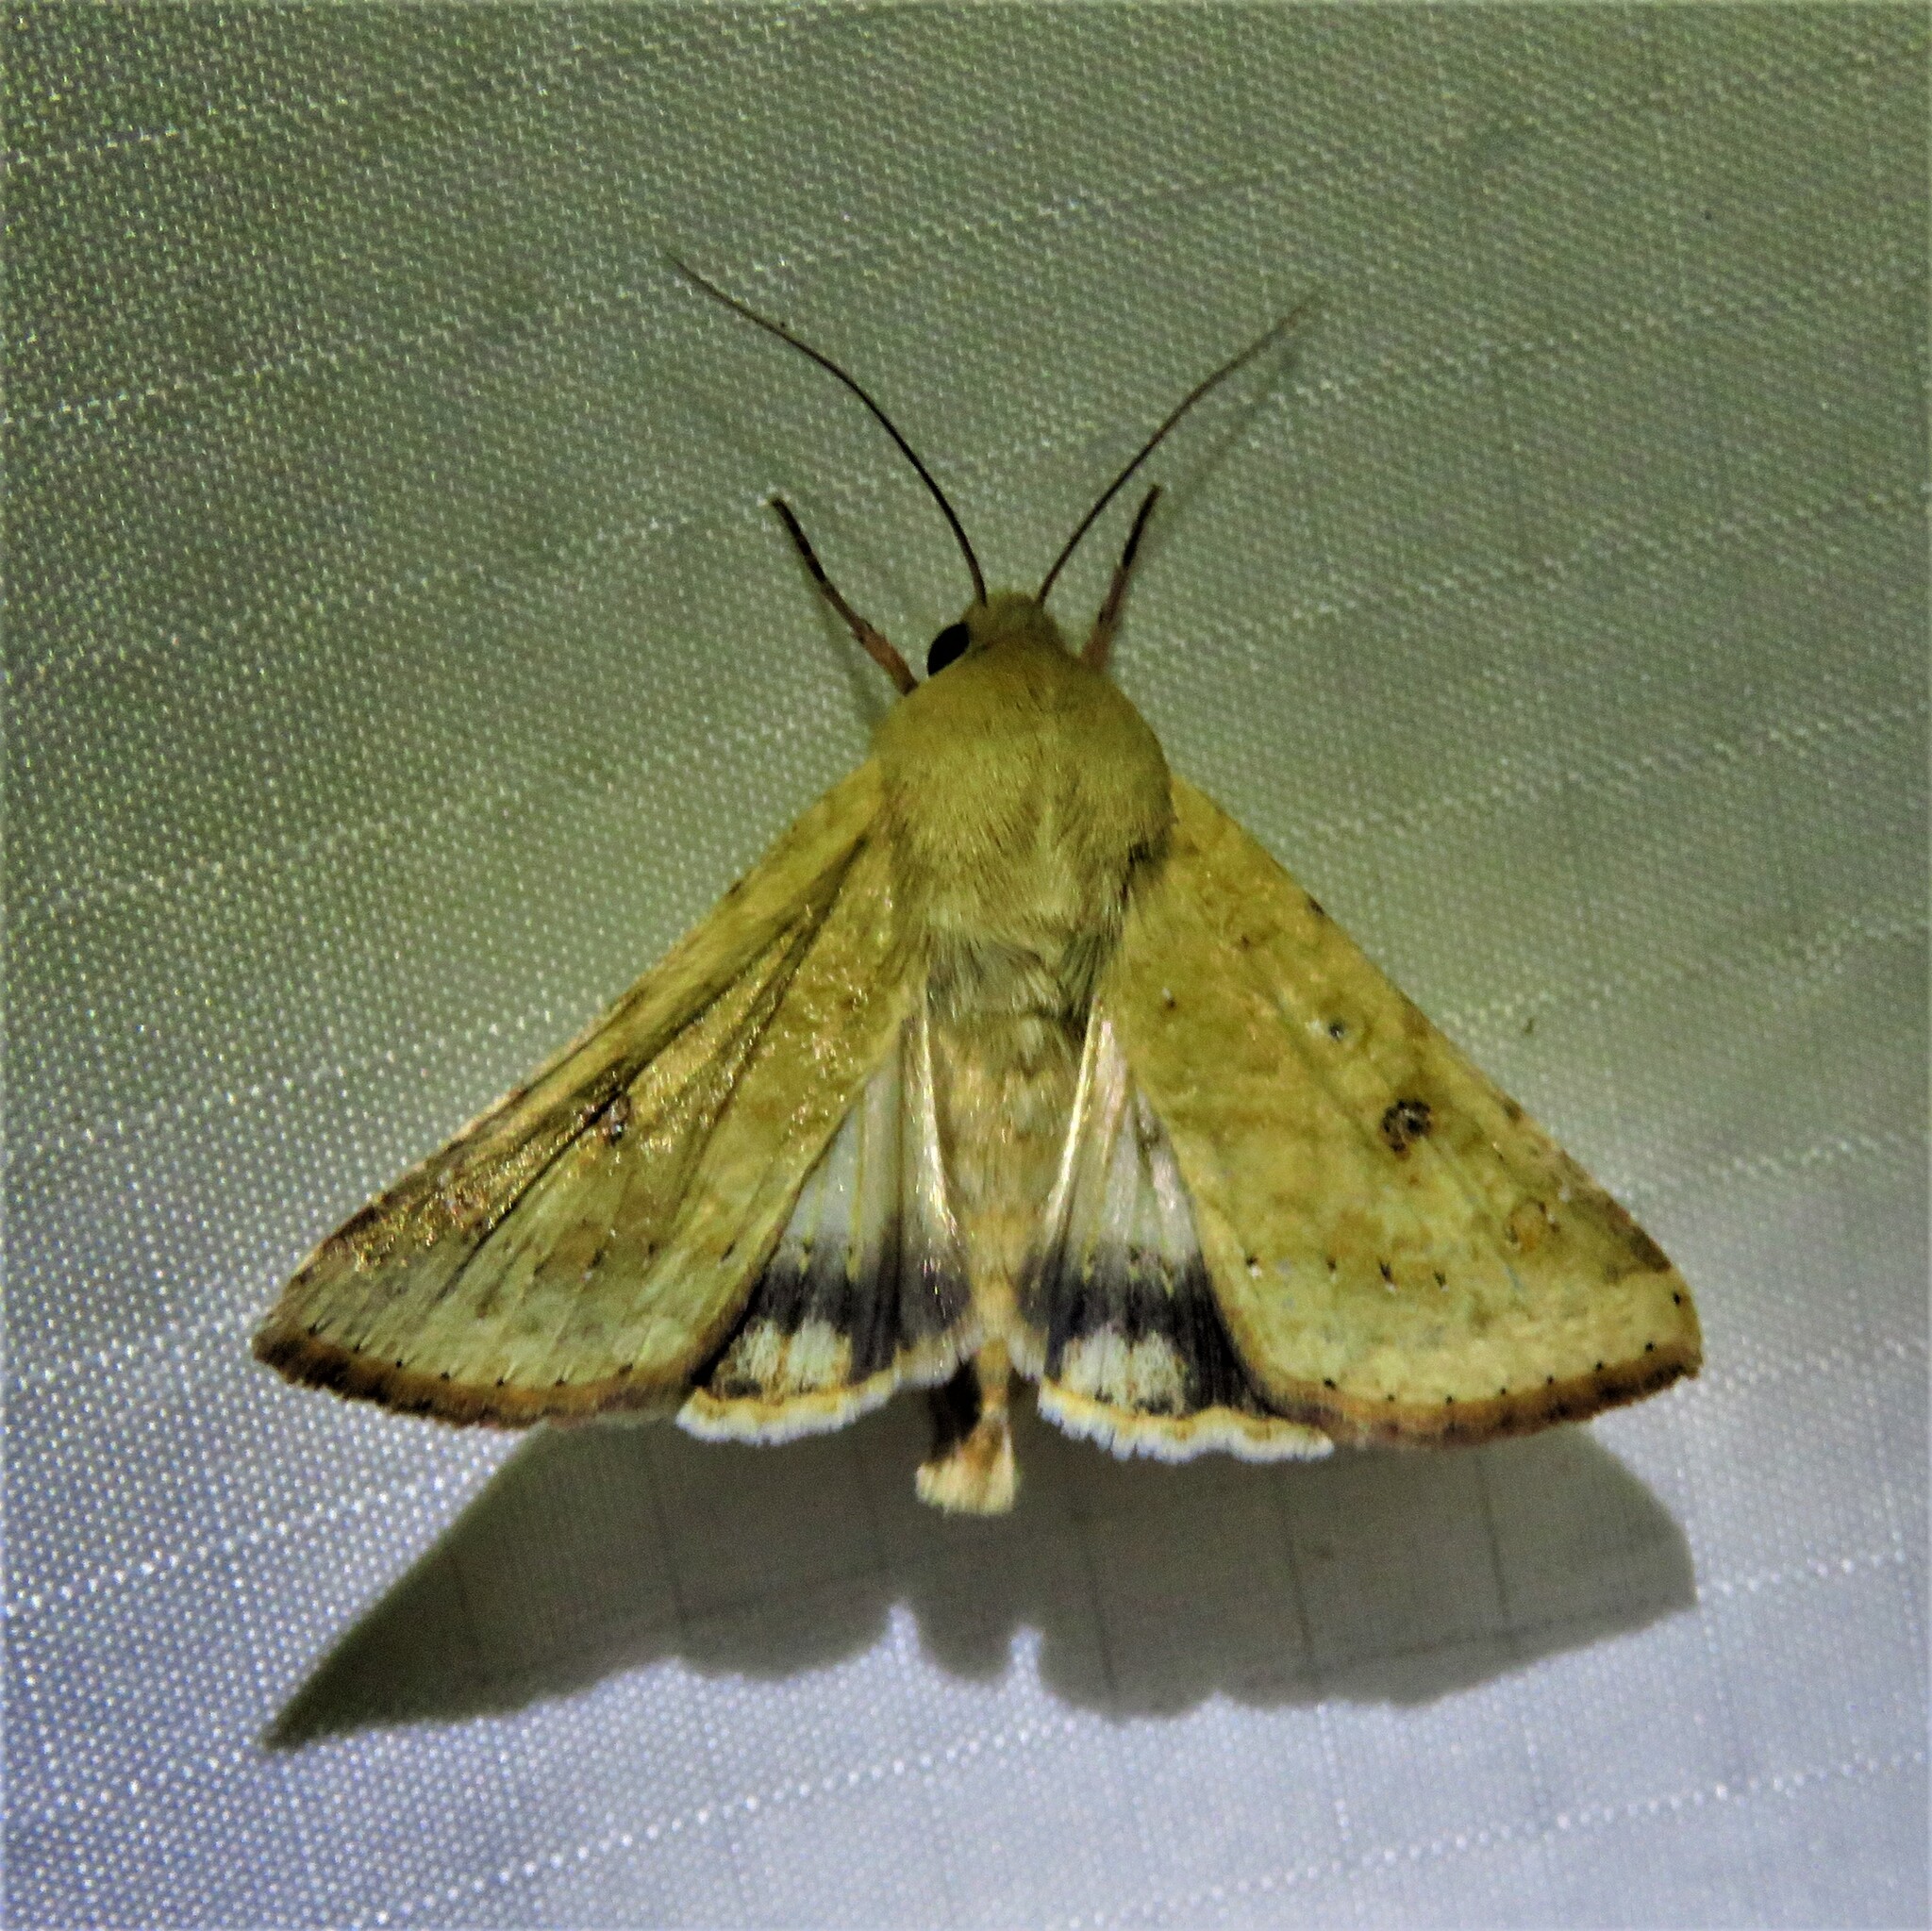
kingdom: Animalia
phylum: Arthropoda
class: Insecta
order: Lepidoptera
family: Noctuidae
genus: Helicoverpa
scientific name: Helicoverpa zea
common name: Bollworm
